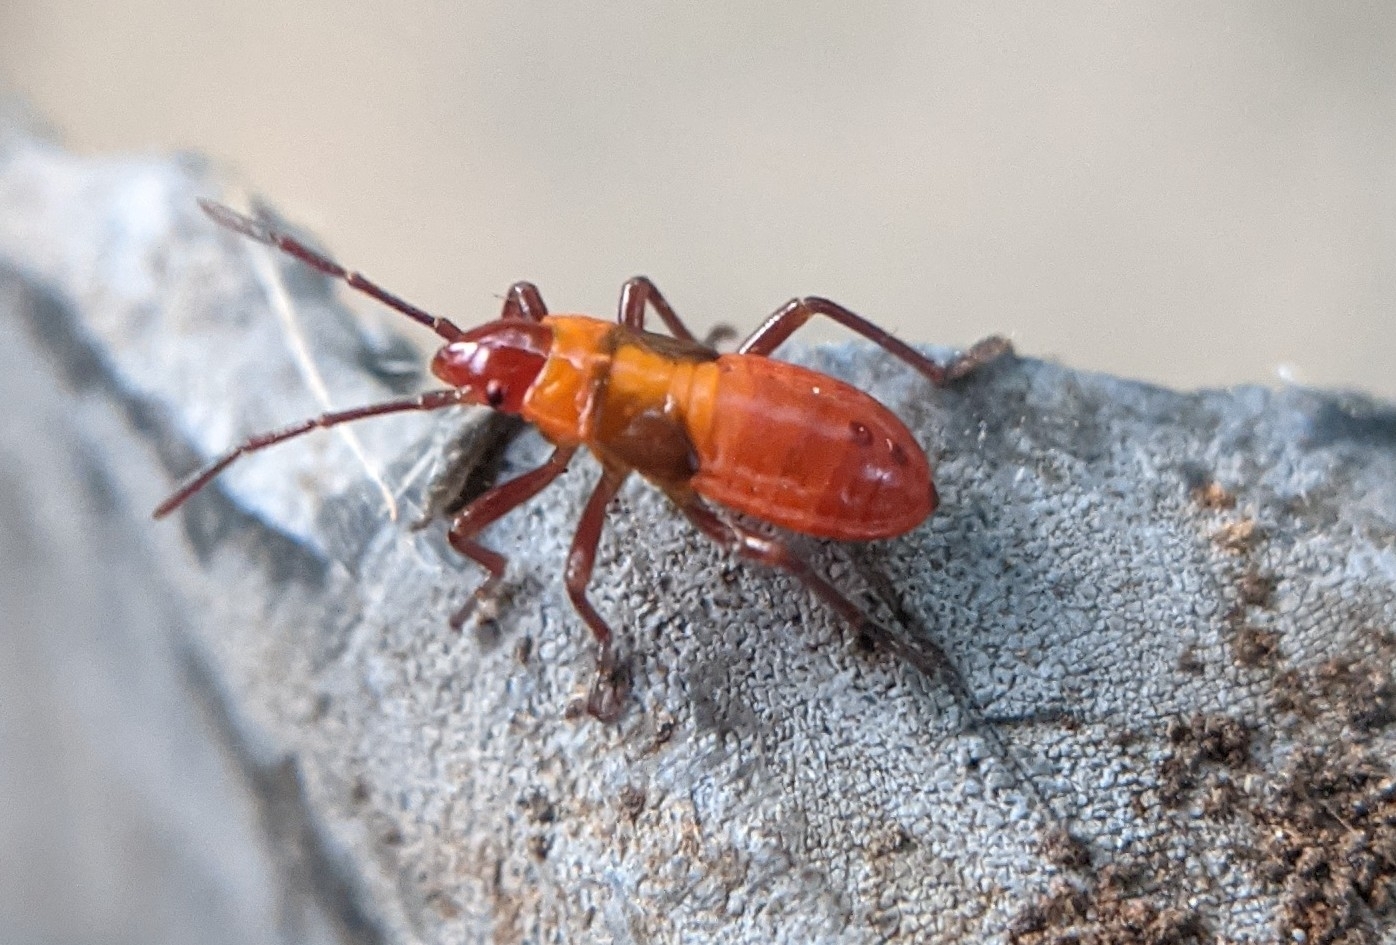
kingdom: Animalia
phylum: Arthropoda
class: Insecta
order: Hemiptera
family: Lygaeidae
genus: Oncopeltus
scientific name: Oncopeltus fasciatus
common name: Large milkweed bug
